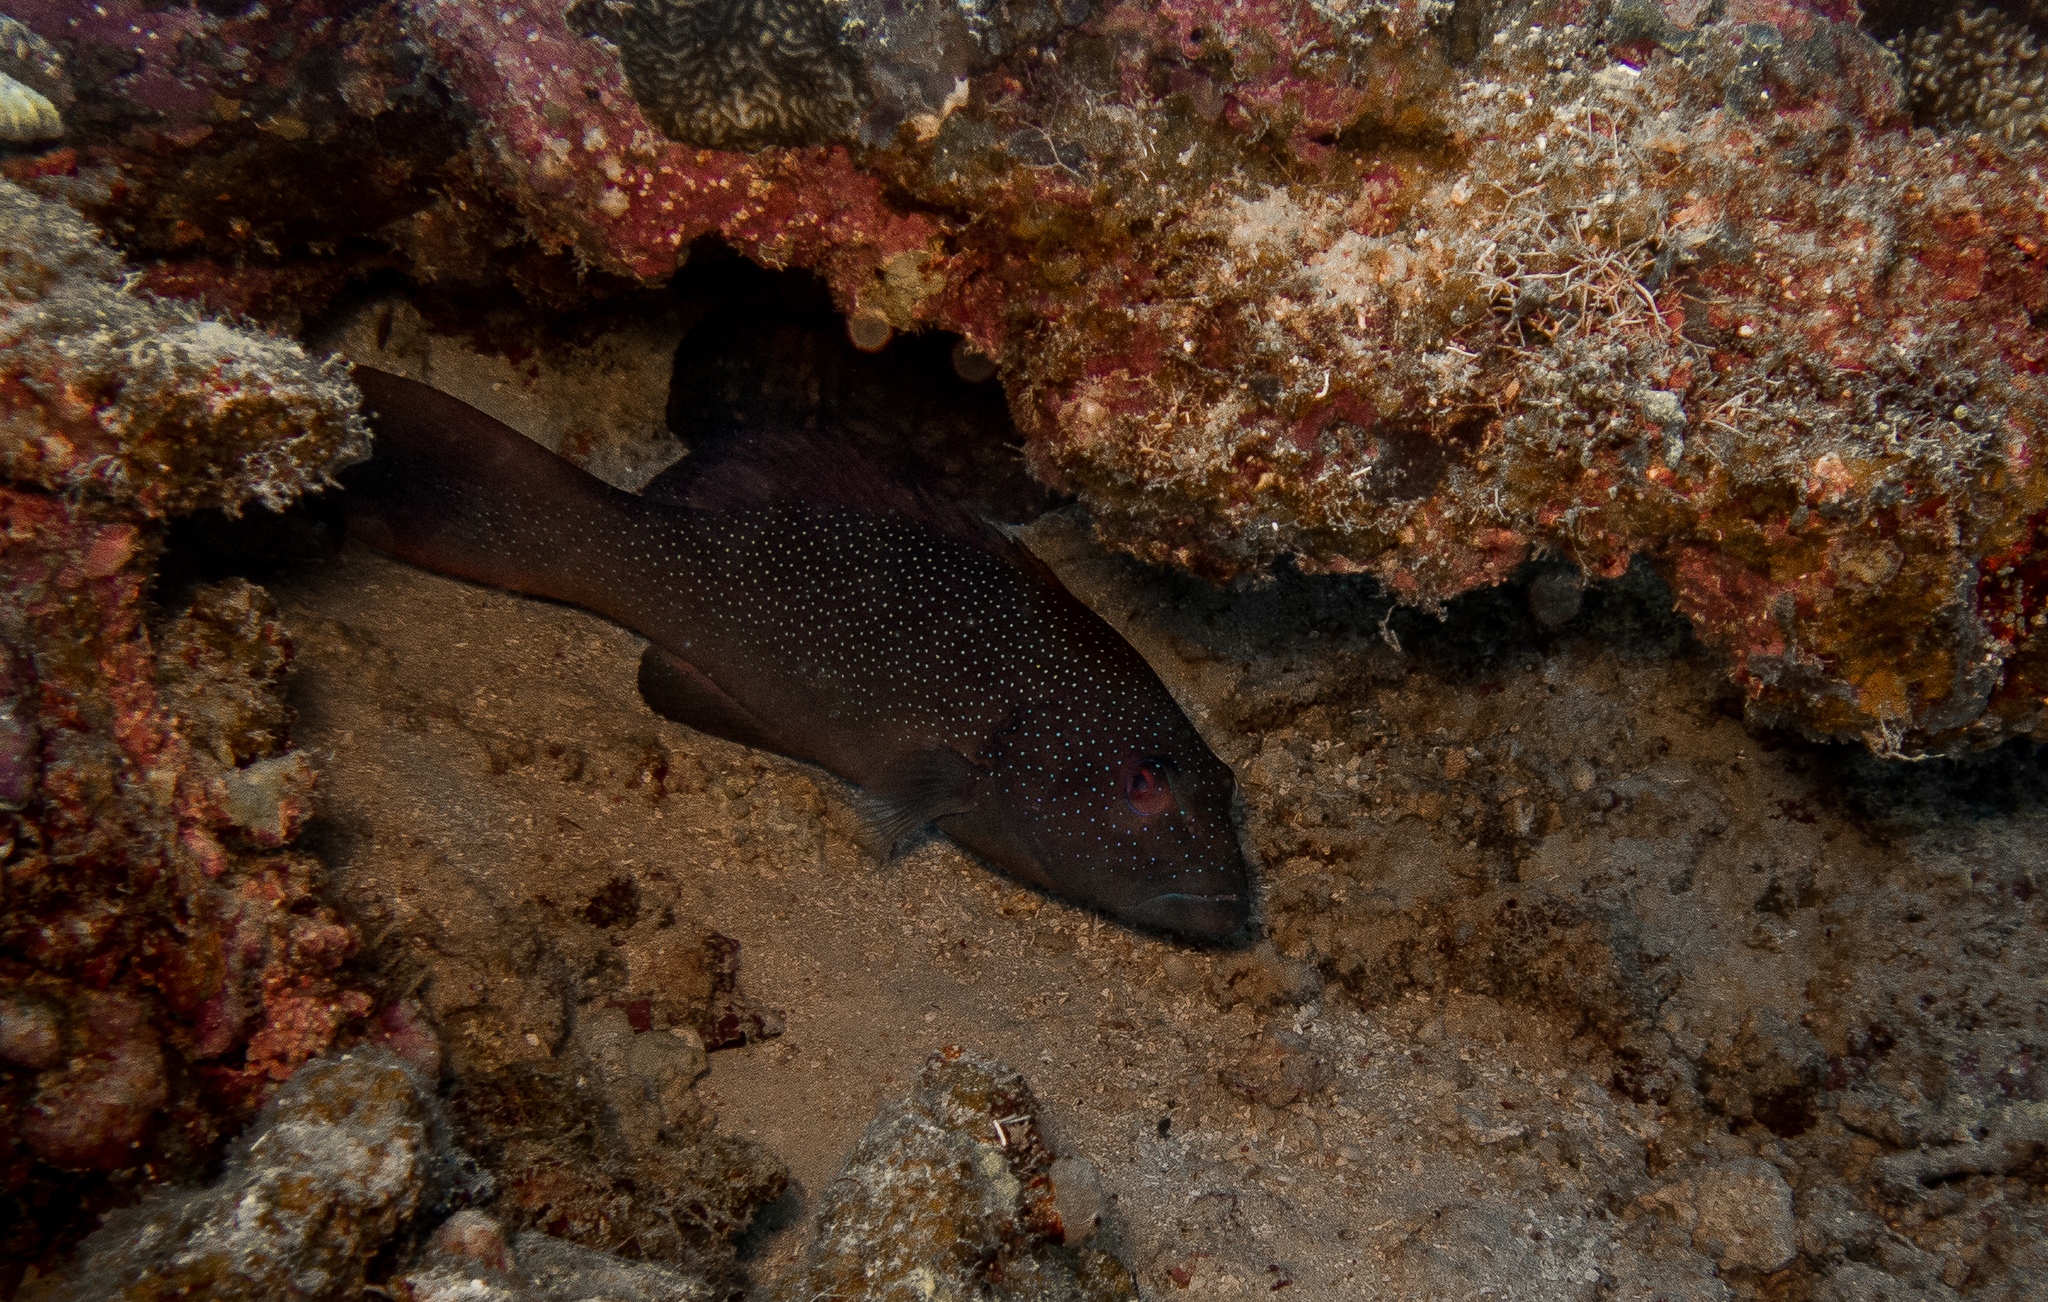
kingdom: Animalia
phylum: Chordata
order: Perciformes
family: Serranidae
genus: Plectropomus
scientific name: Plectropomus leopardus
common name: Coral trout
